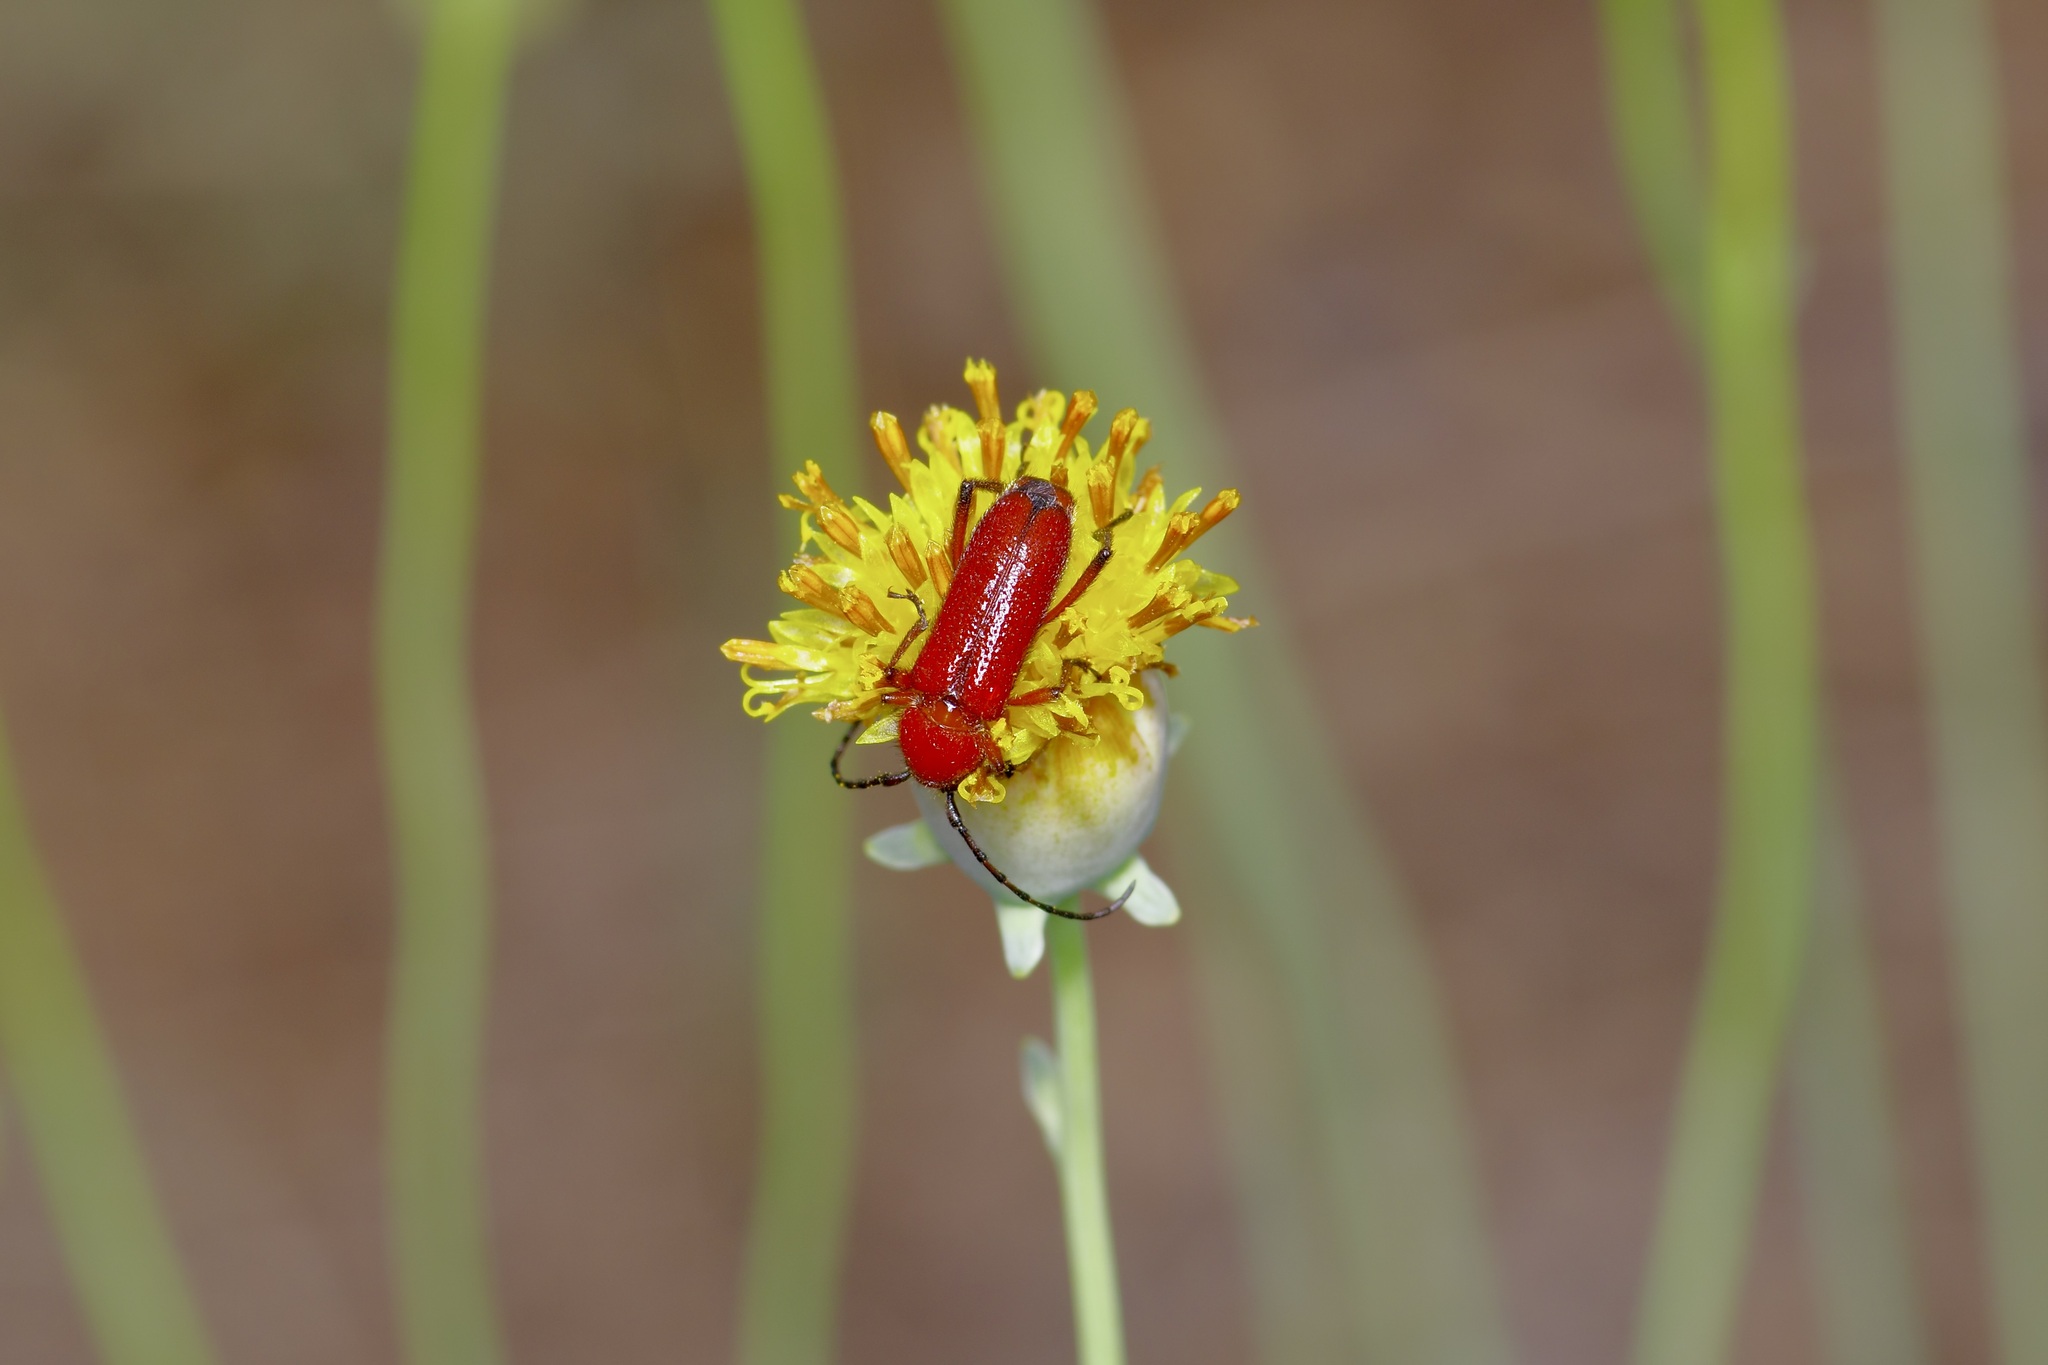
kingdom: Animalia
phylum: Arthropoda
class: Insecta
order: Coleoptera
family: Cerambycidae
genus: Batyle
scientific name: Batyle suturalis
